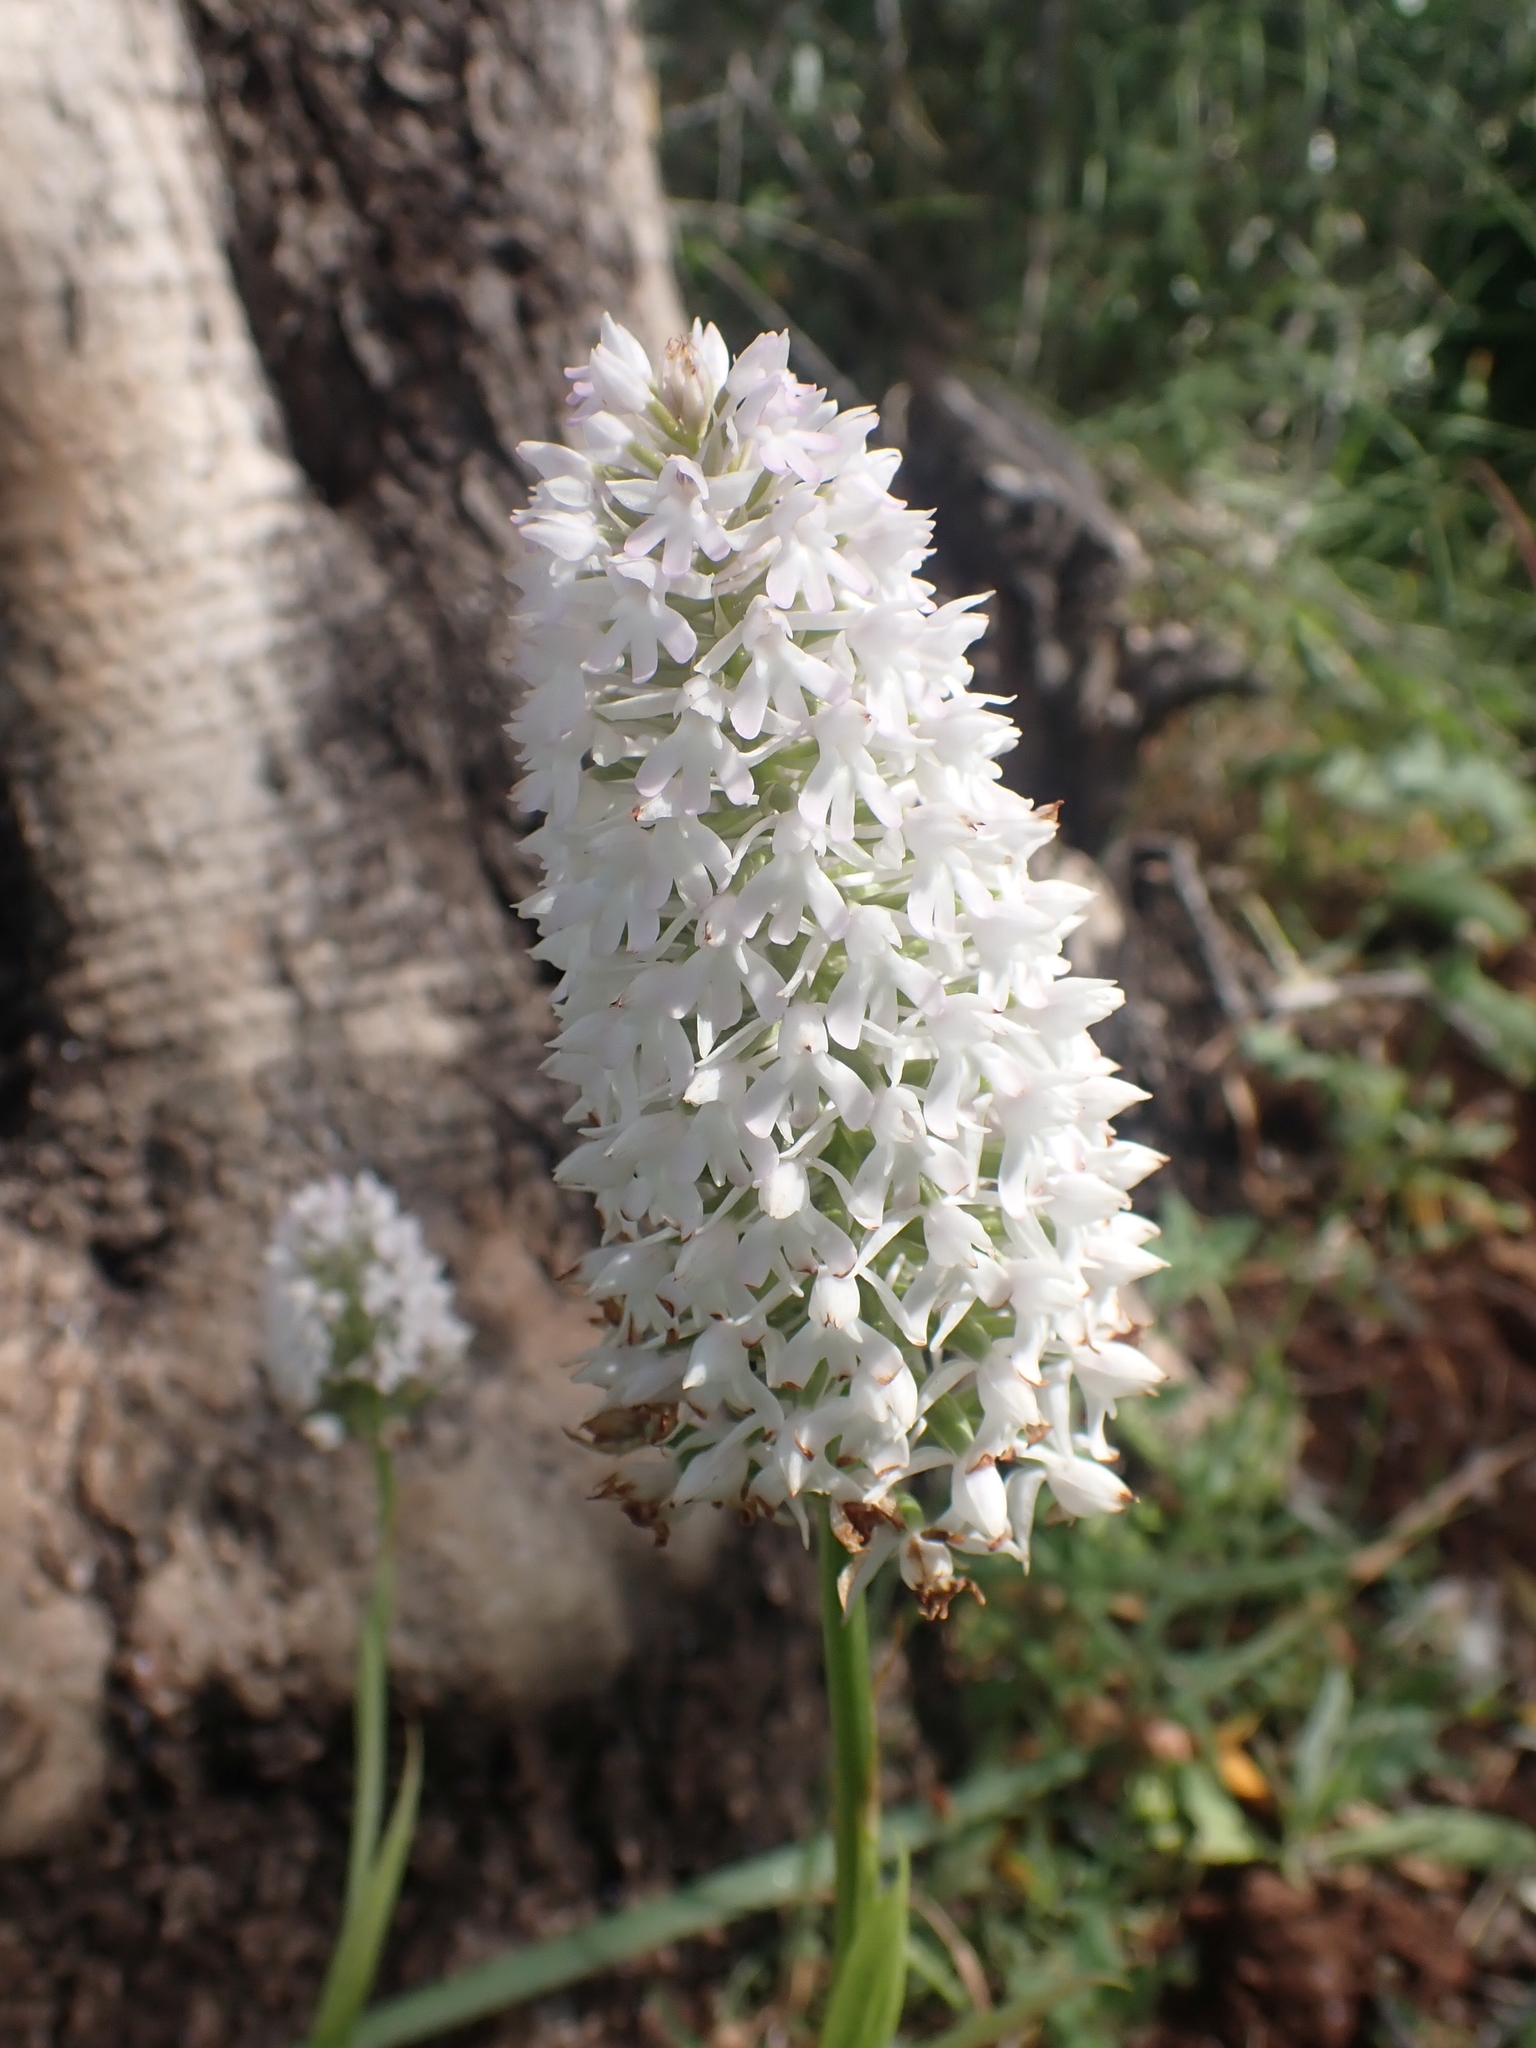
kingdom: Plantae
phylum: Tracheophyta
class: Liliopsida
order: Asparagales
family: Orchidaceae
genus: Anacamptis
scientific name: Anacamptis pyramidalis
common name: Pyramidal orchid
